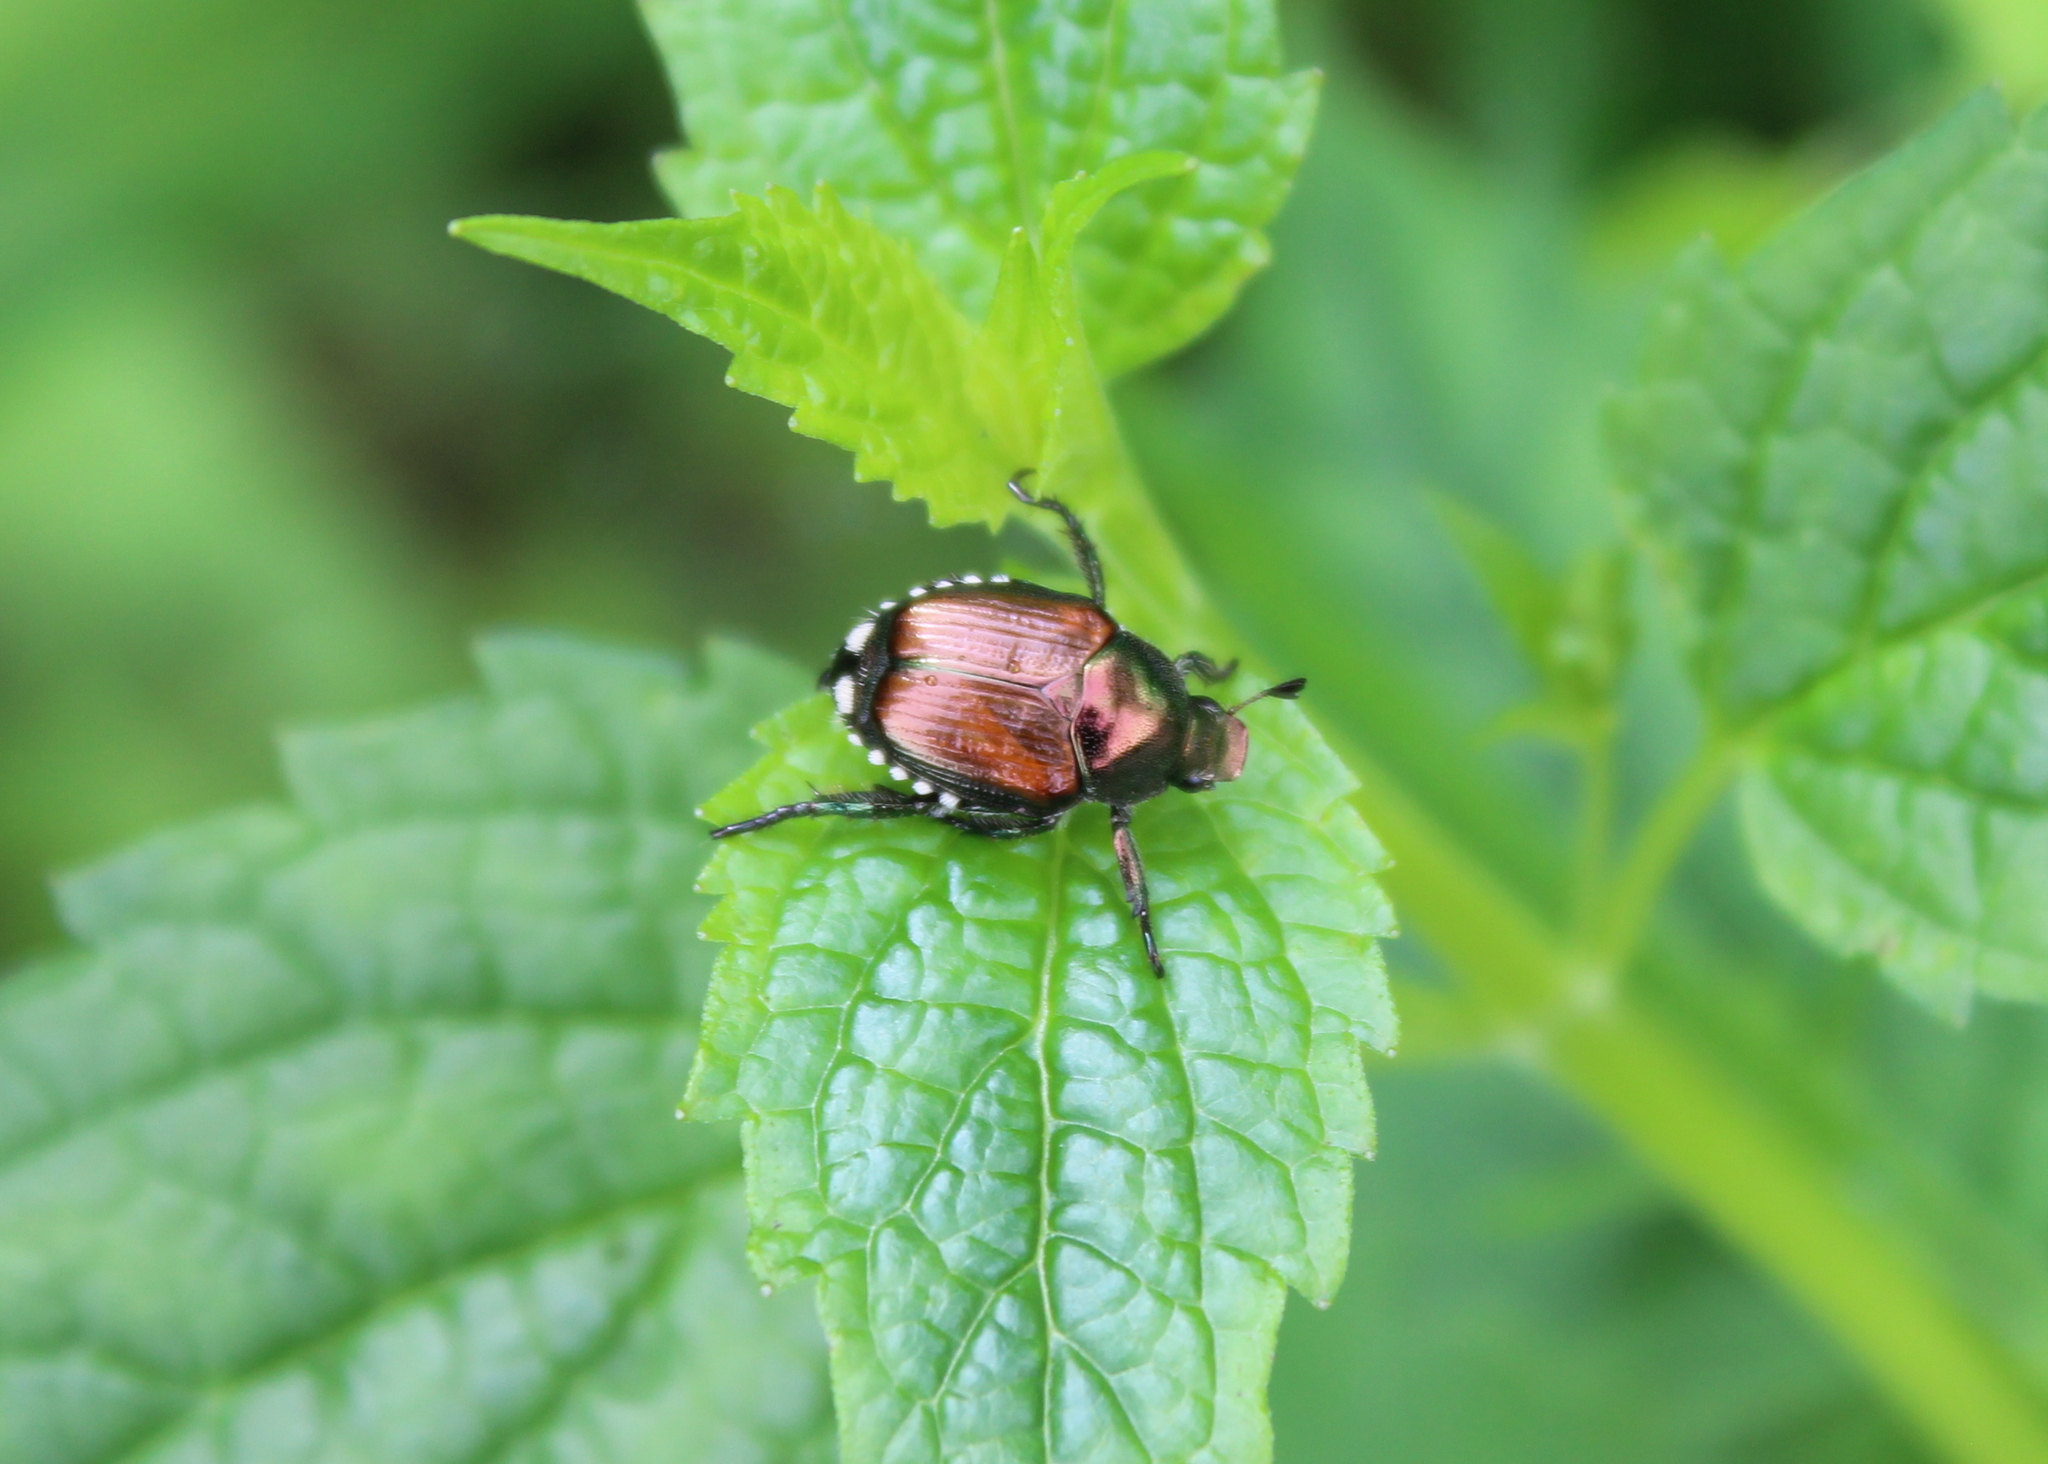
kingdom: Animalia
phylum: Arthropoda
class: Insecta
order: Coleoptera
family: Scarabaeidae
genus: Popillia
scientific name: Popillia japonica
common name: Japanese beetle
